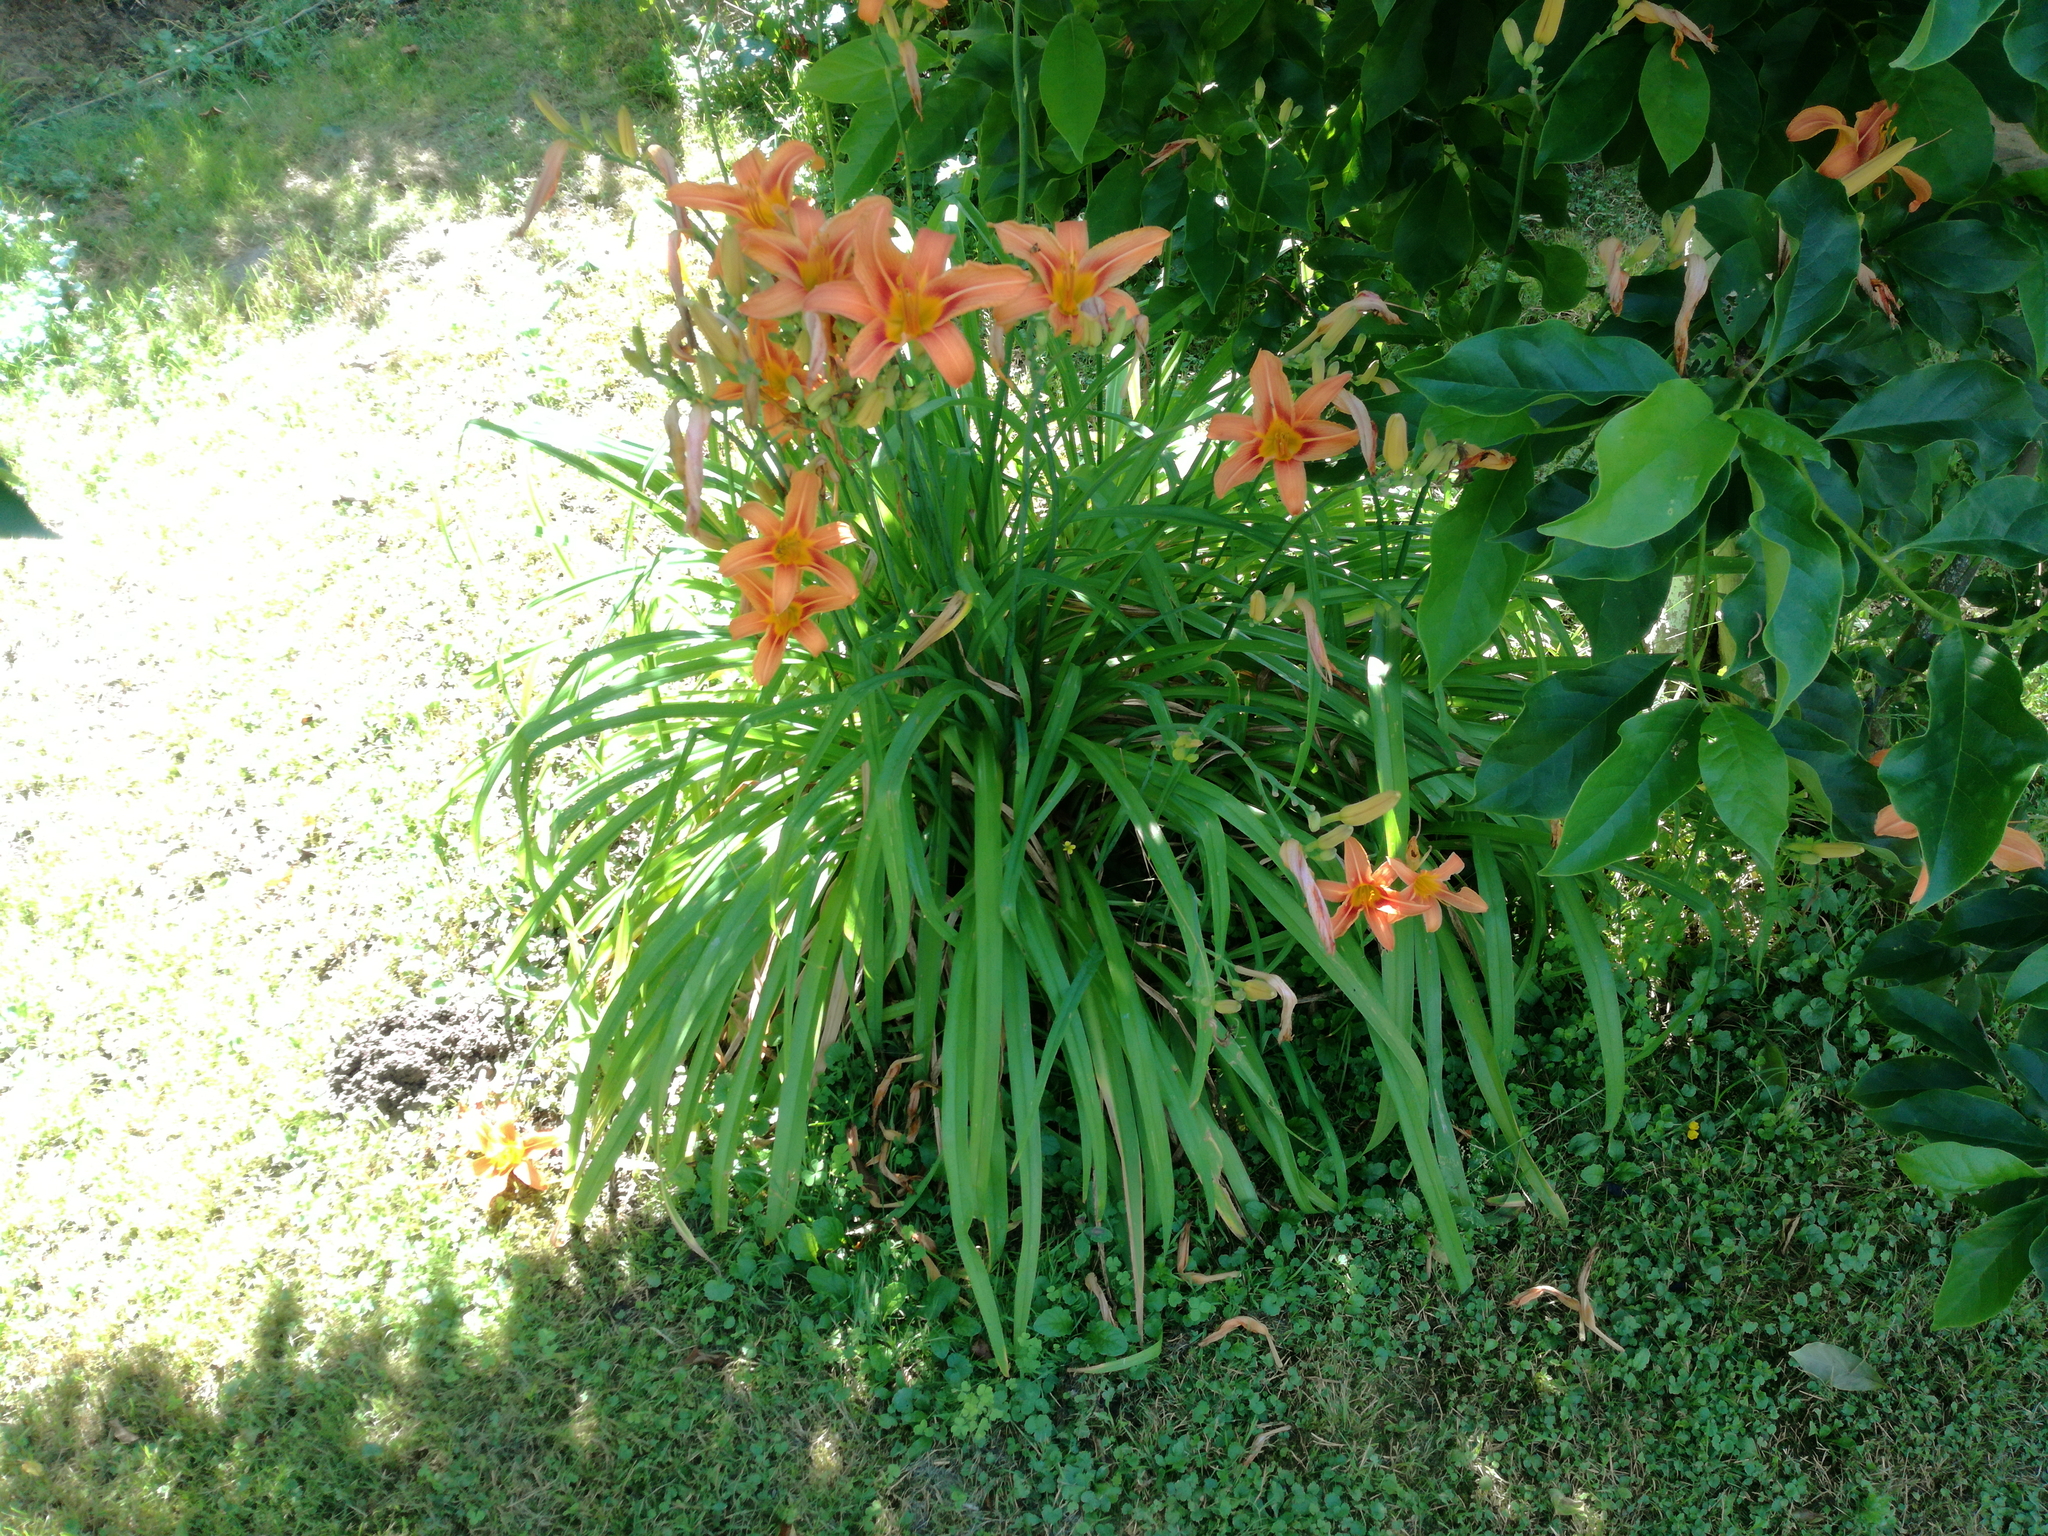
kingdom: Plantae
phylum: Tracheophyta
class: Liliopsida
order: Asparagales
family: Asphodelaceae
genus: Hemerocallis
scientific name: Hemerocallis fulva
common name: Orange day-lily
